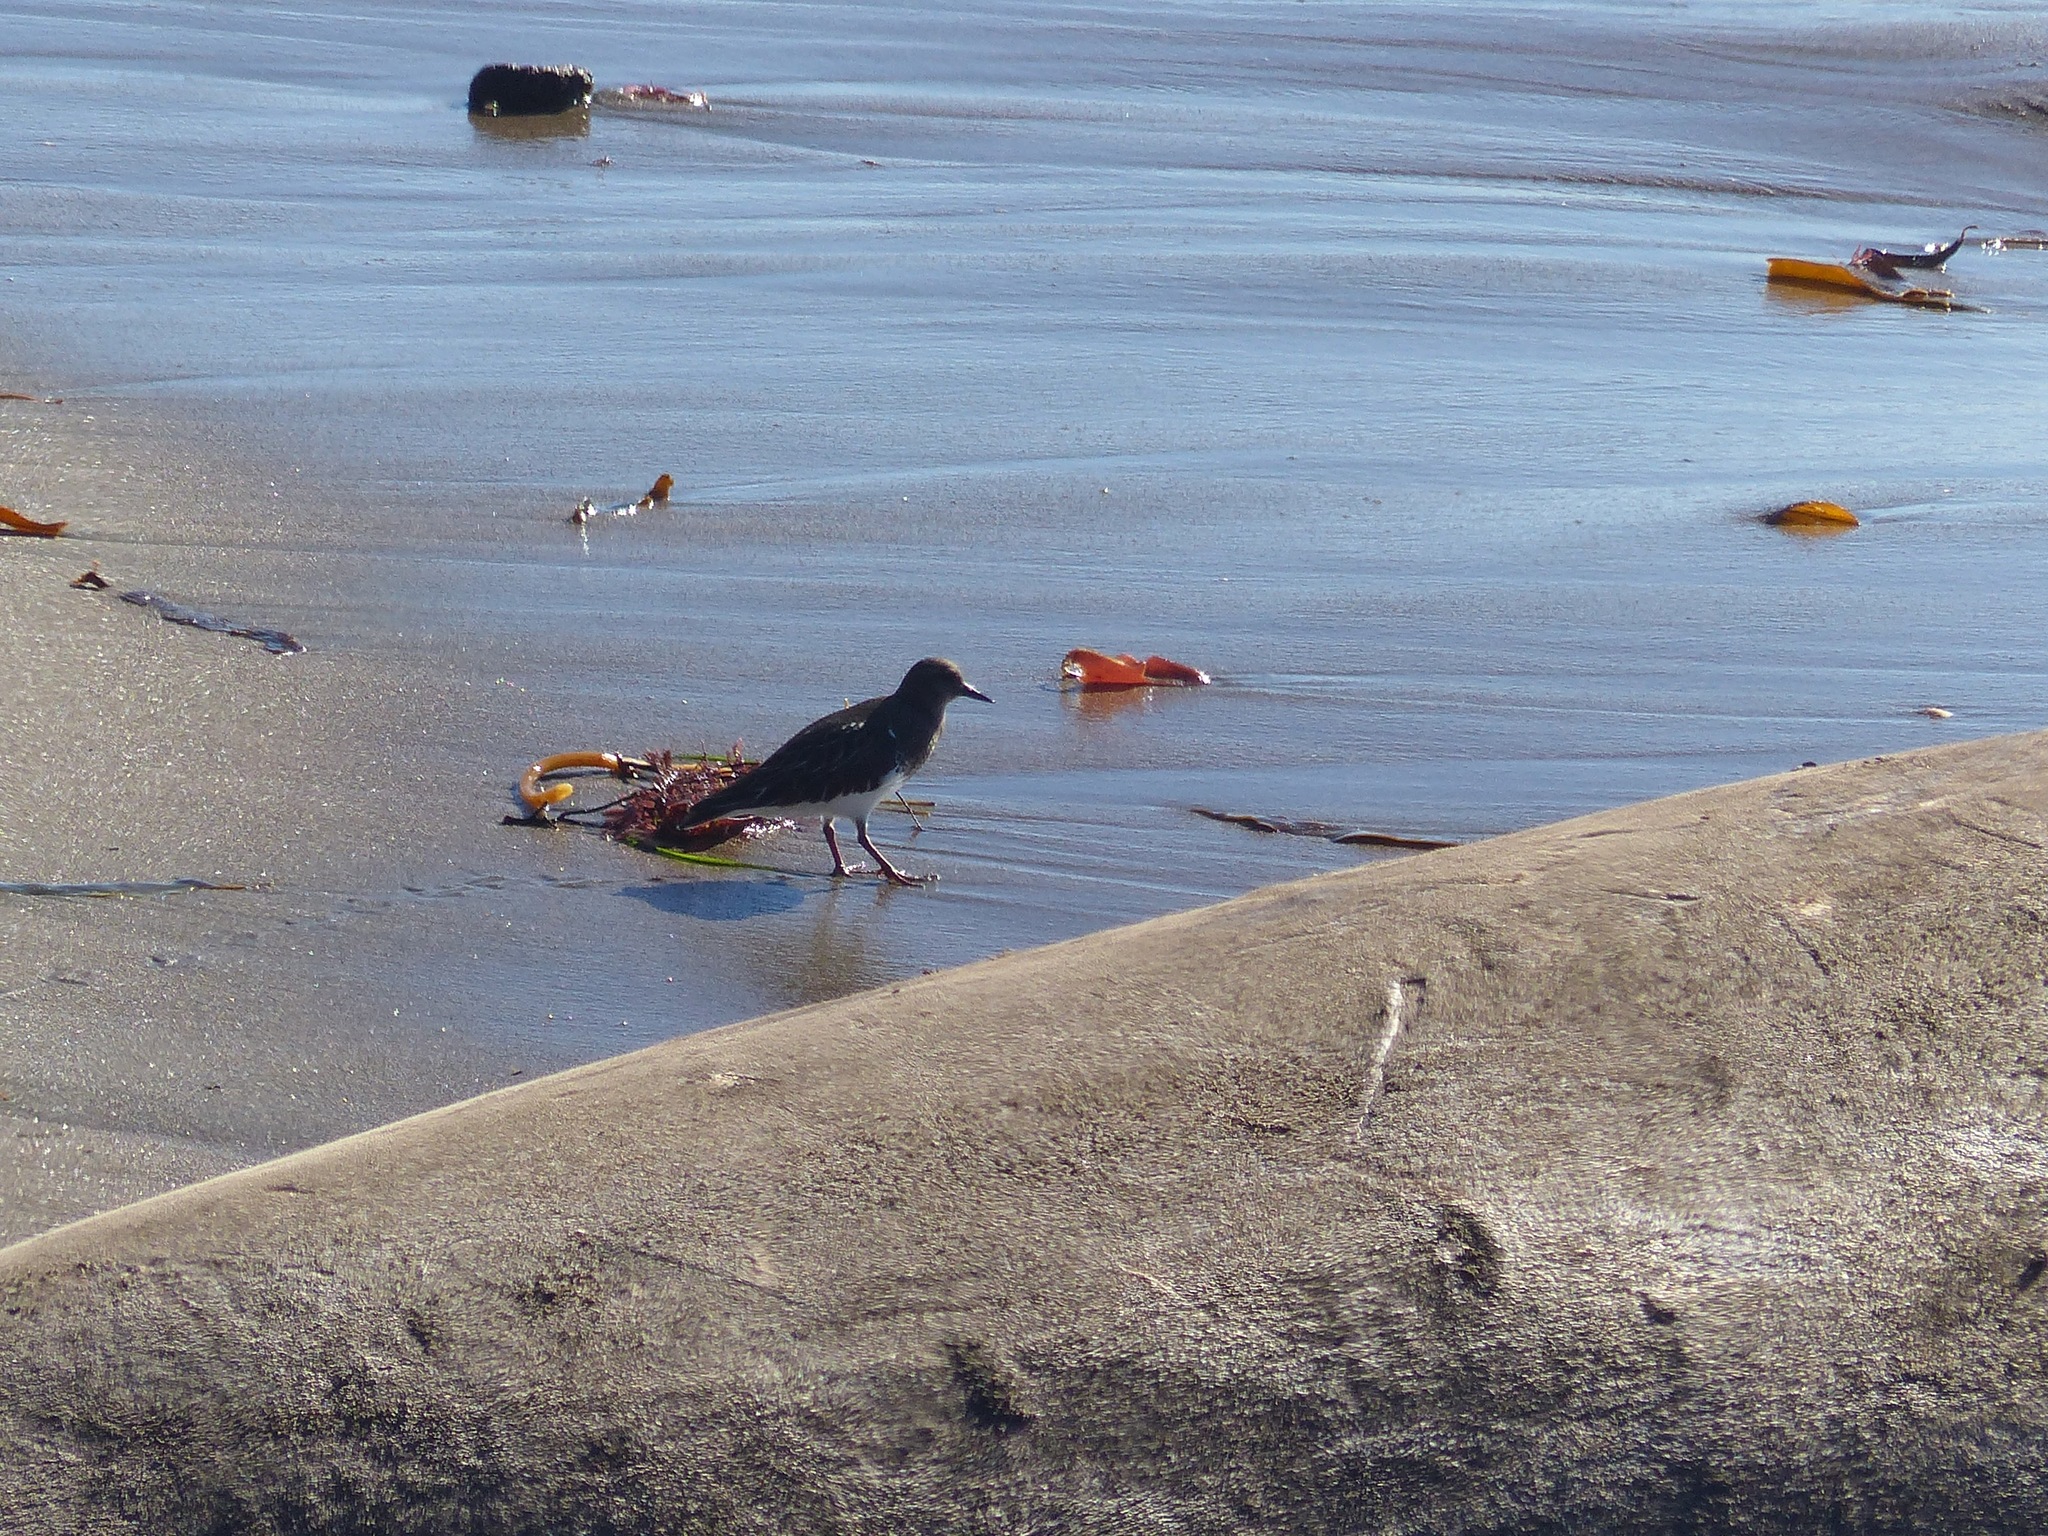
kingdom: Animalia
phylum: Chordata
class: Aves
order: Charadriiformes
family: Scolopacidae
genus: Arenaria
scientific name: Arenaria melanocephala
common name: Black turnstone
